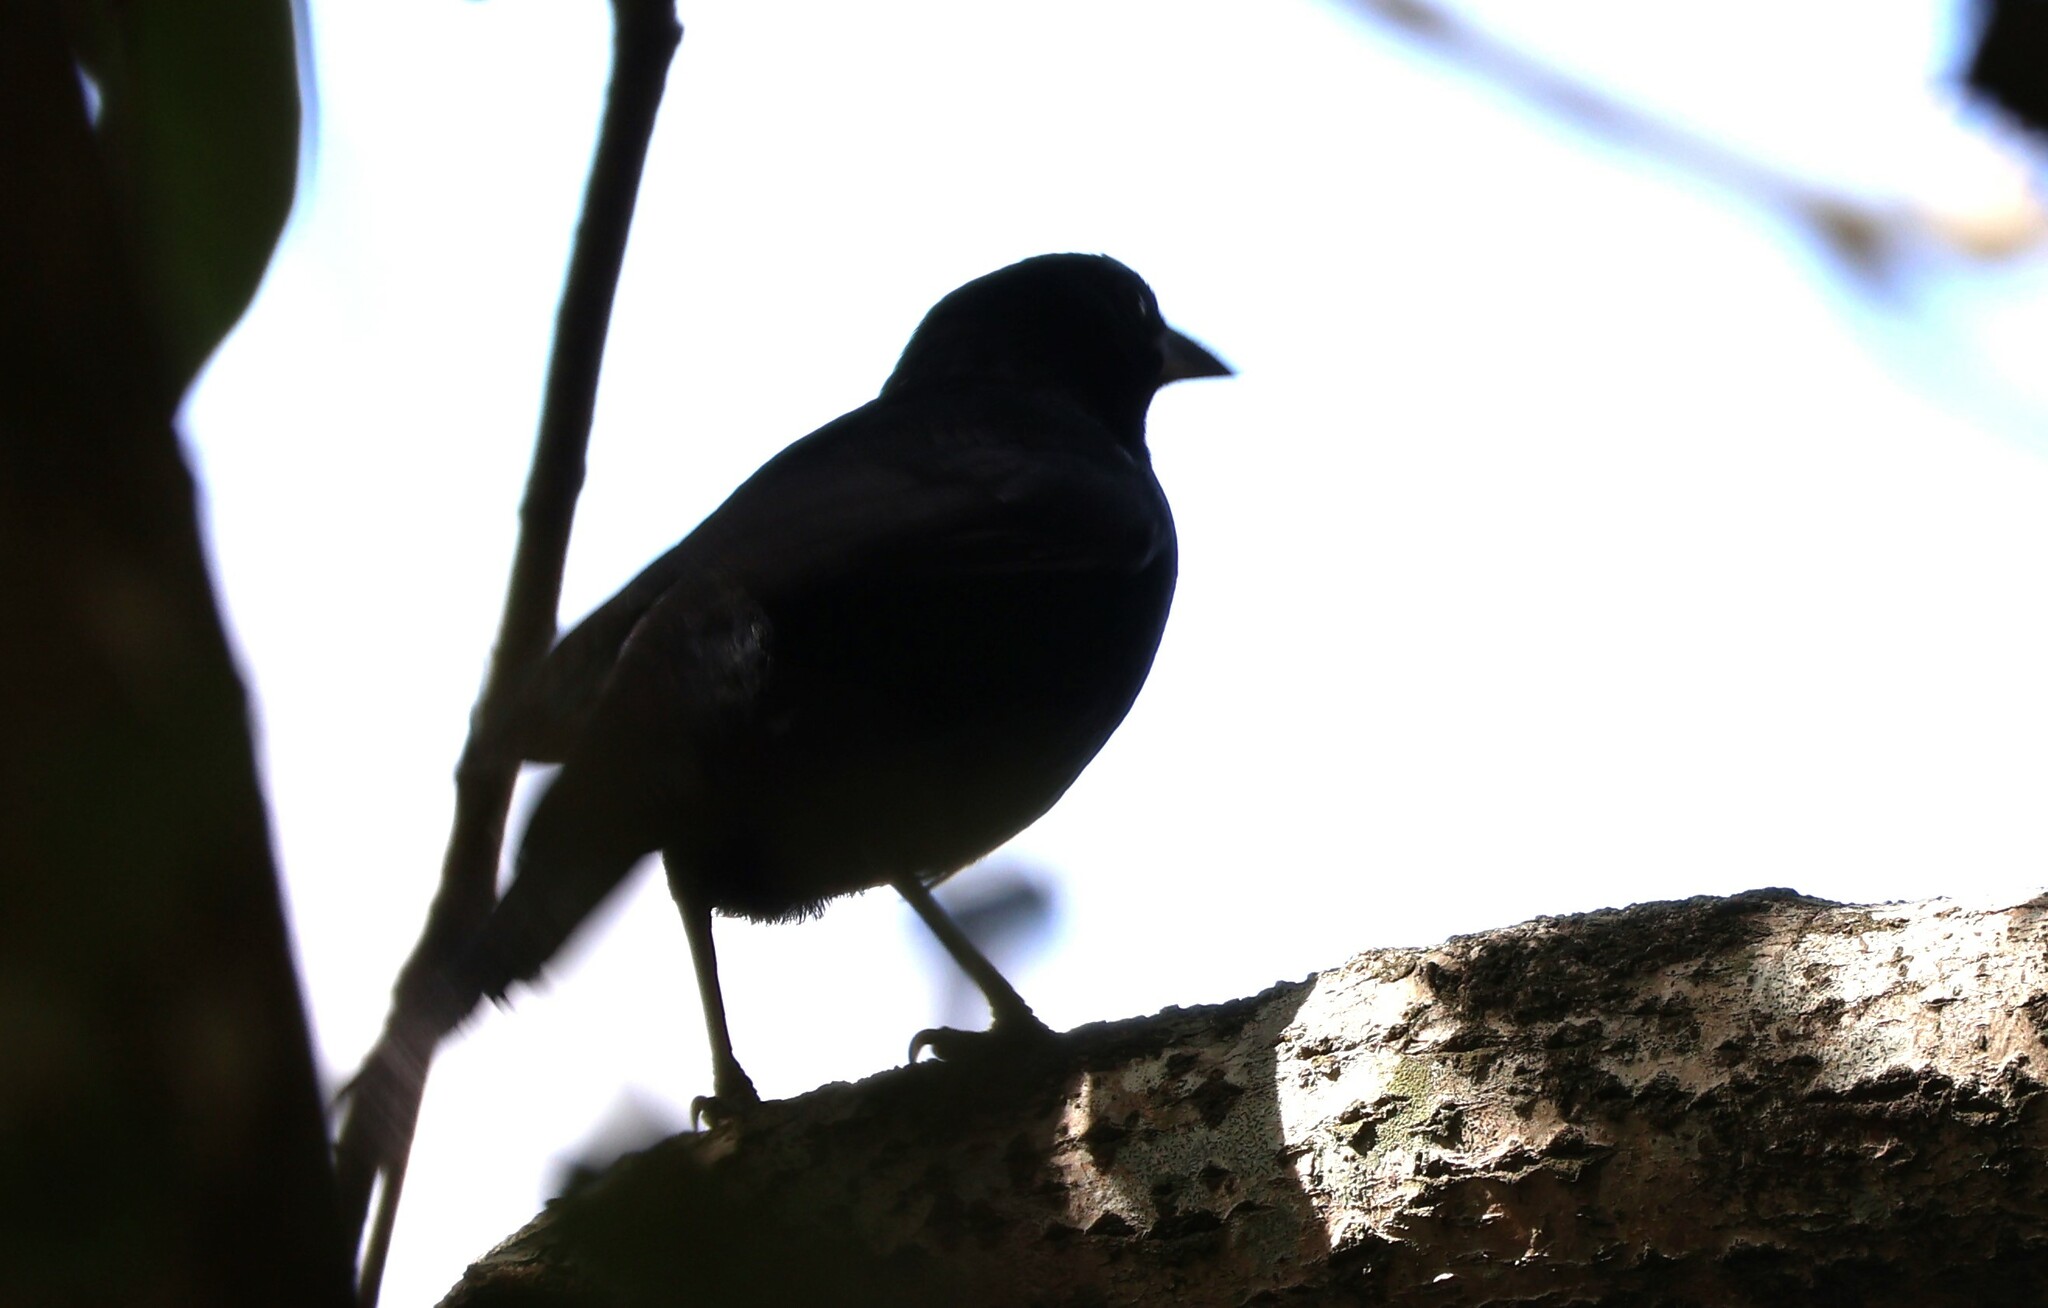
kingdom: Animalia
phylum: Chordata
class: Aves
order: Passeriformes
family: Icteridae
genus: Dives
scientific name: Dives dives
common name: Melodious blackbird
